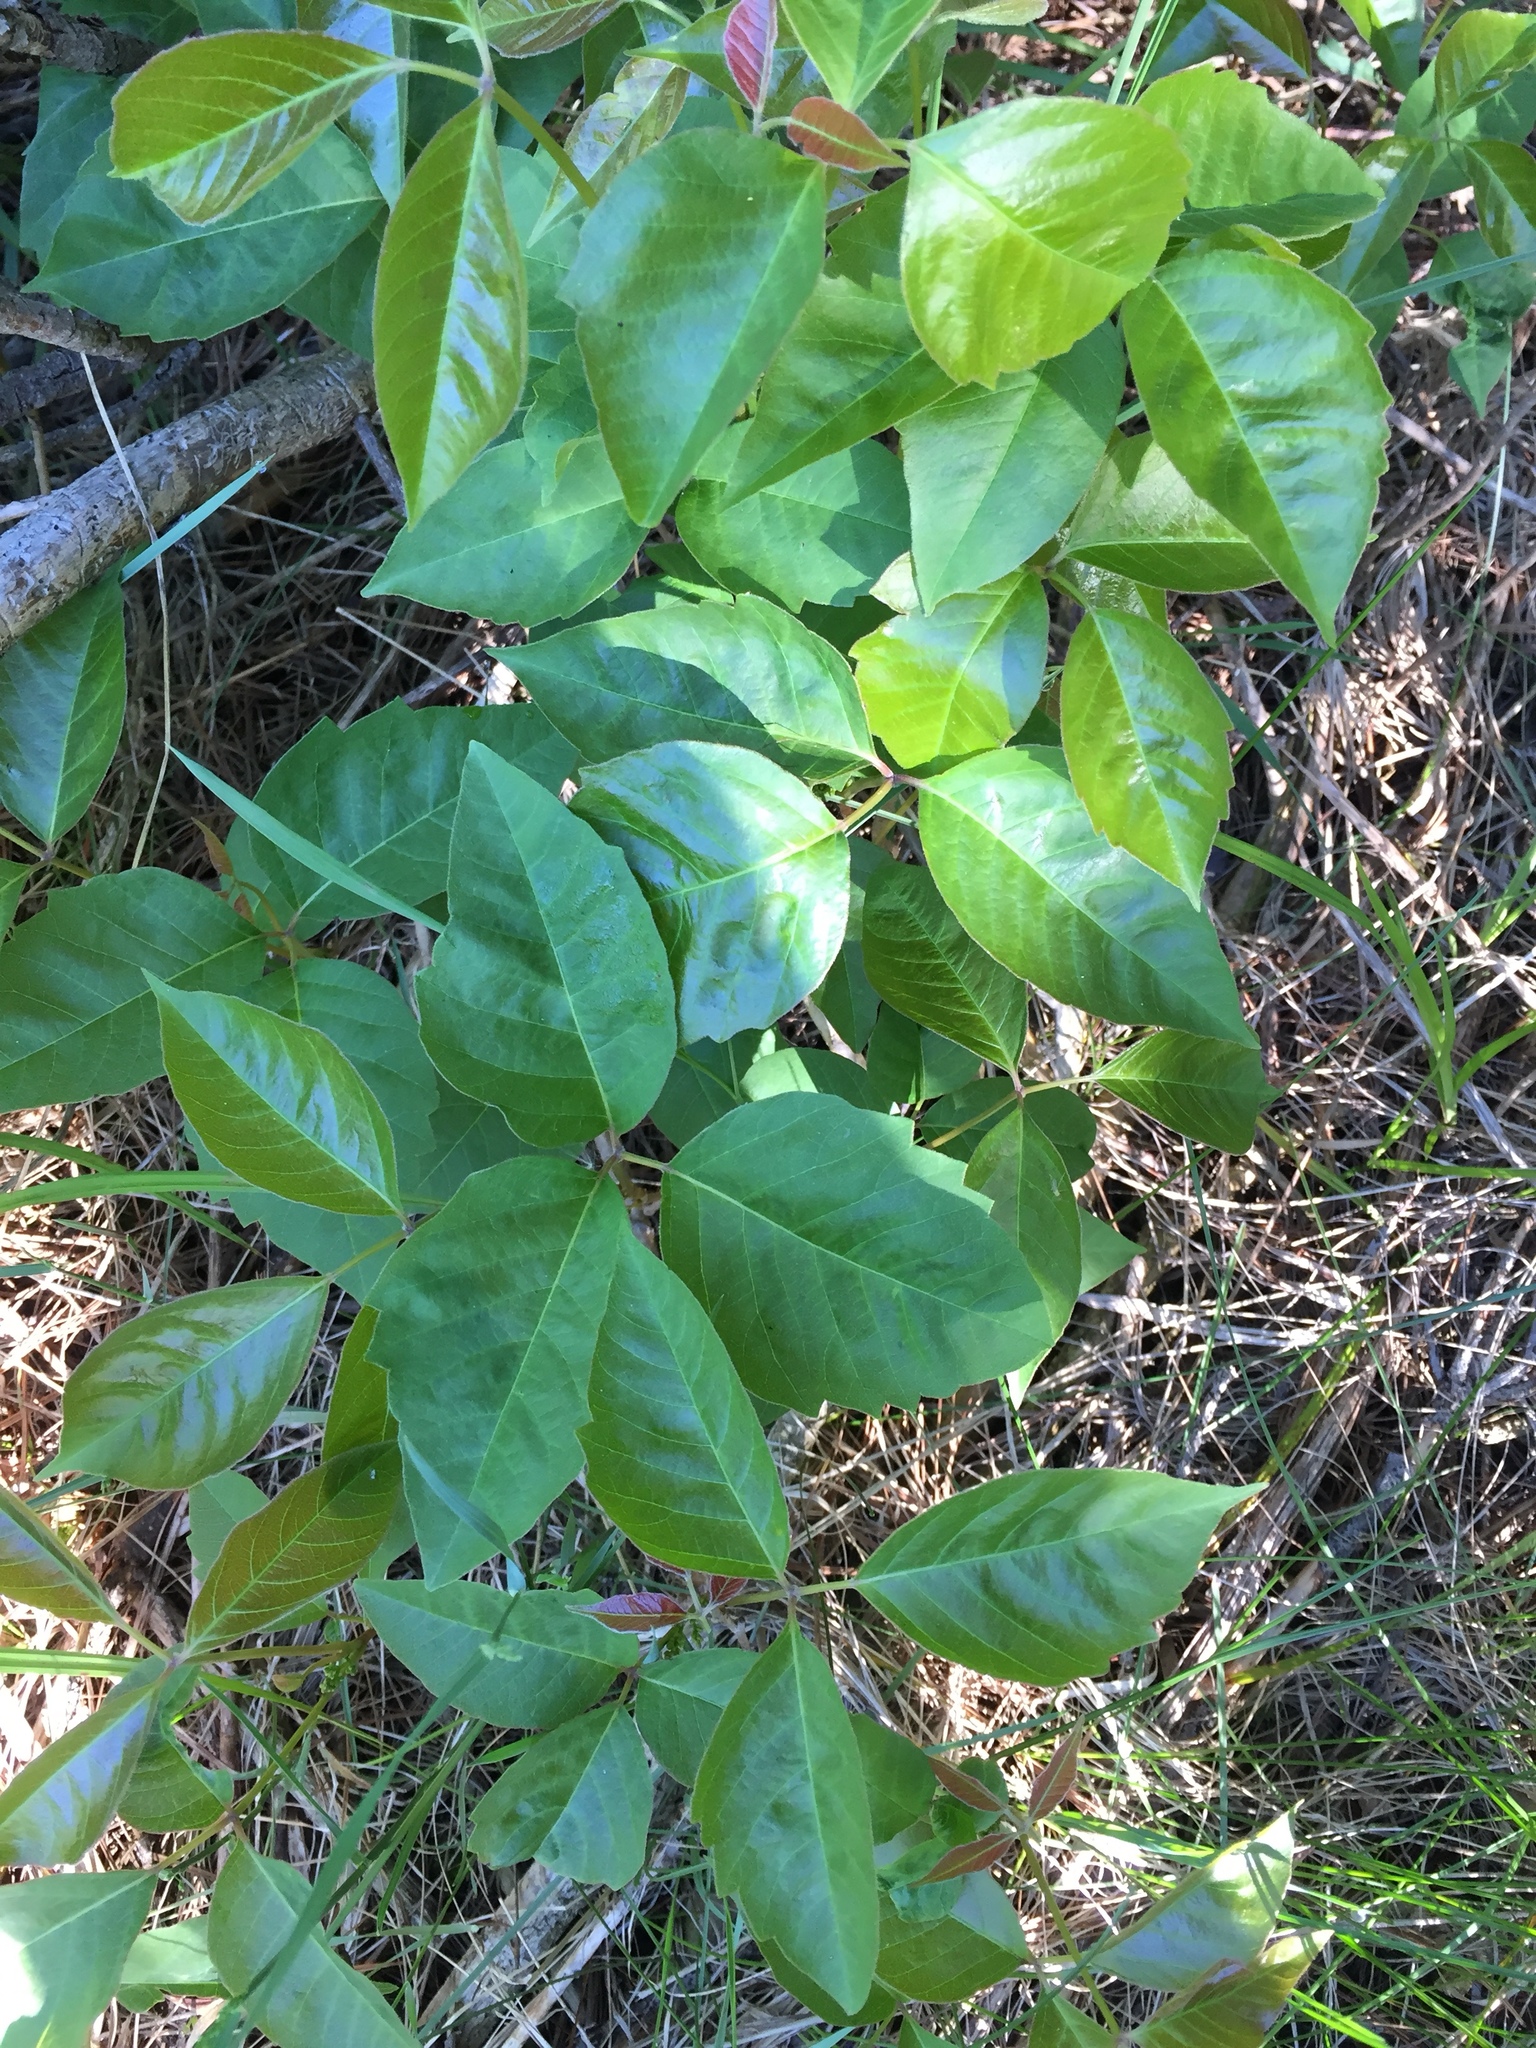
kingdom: Plantae
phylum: Tracheophyta
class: Magnoliopsida
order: Sapindales
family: Anacardiaceae
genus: Toxicodendron
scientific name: Toxicodendron radicans
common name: Poison ivy
